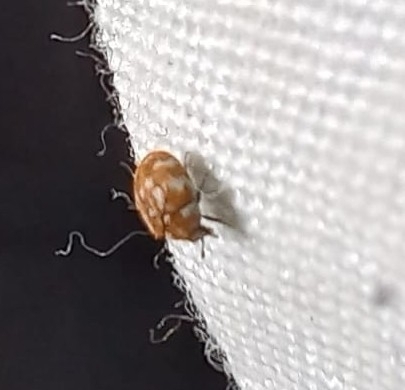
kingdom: Animalia
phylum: Arthropoda
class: Insecta
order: Coleoptera
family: Dermestidae
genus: Anthrenus
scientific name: Anthrenus verbasci
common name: Varied carpet beetle
